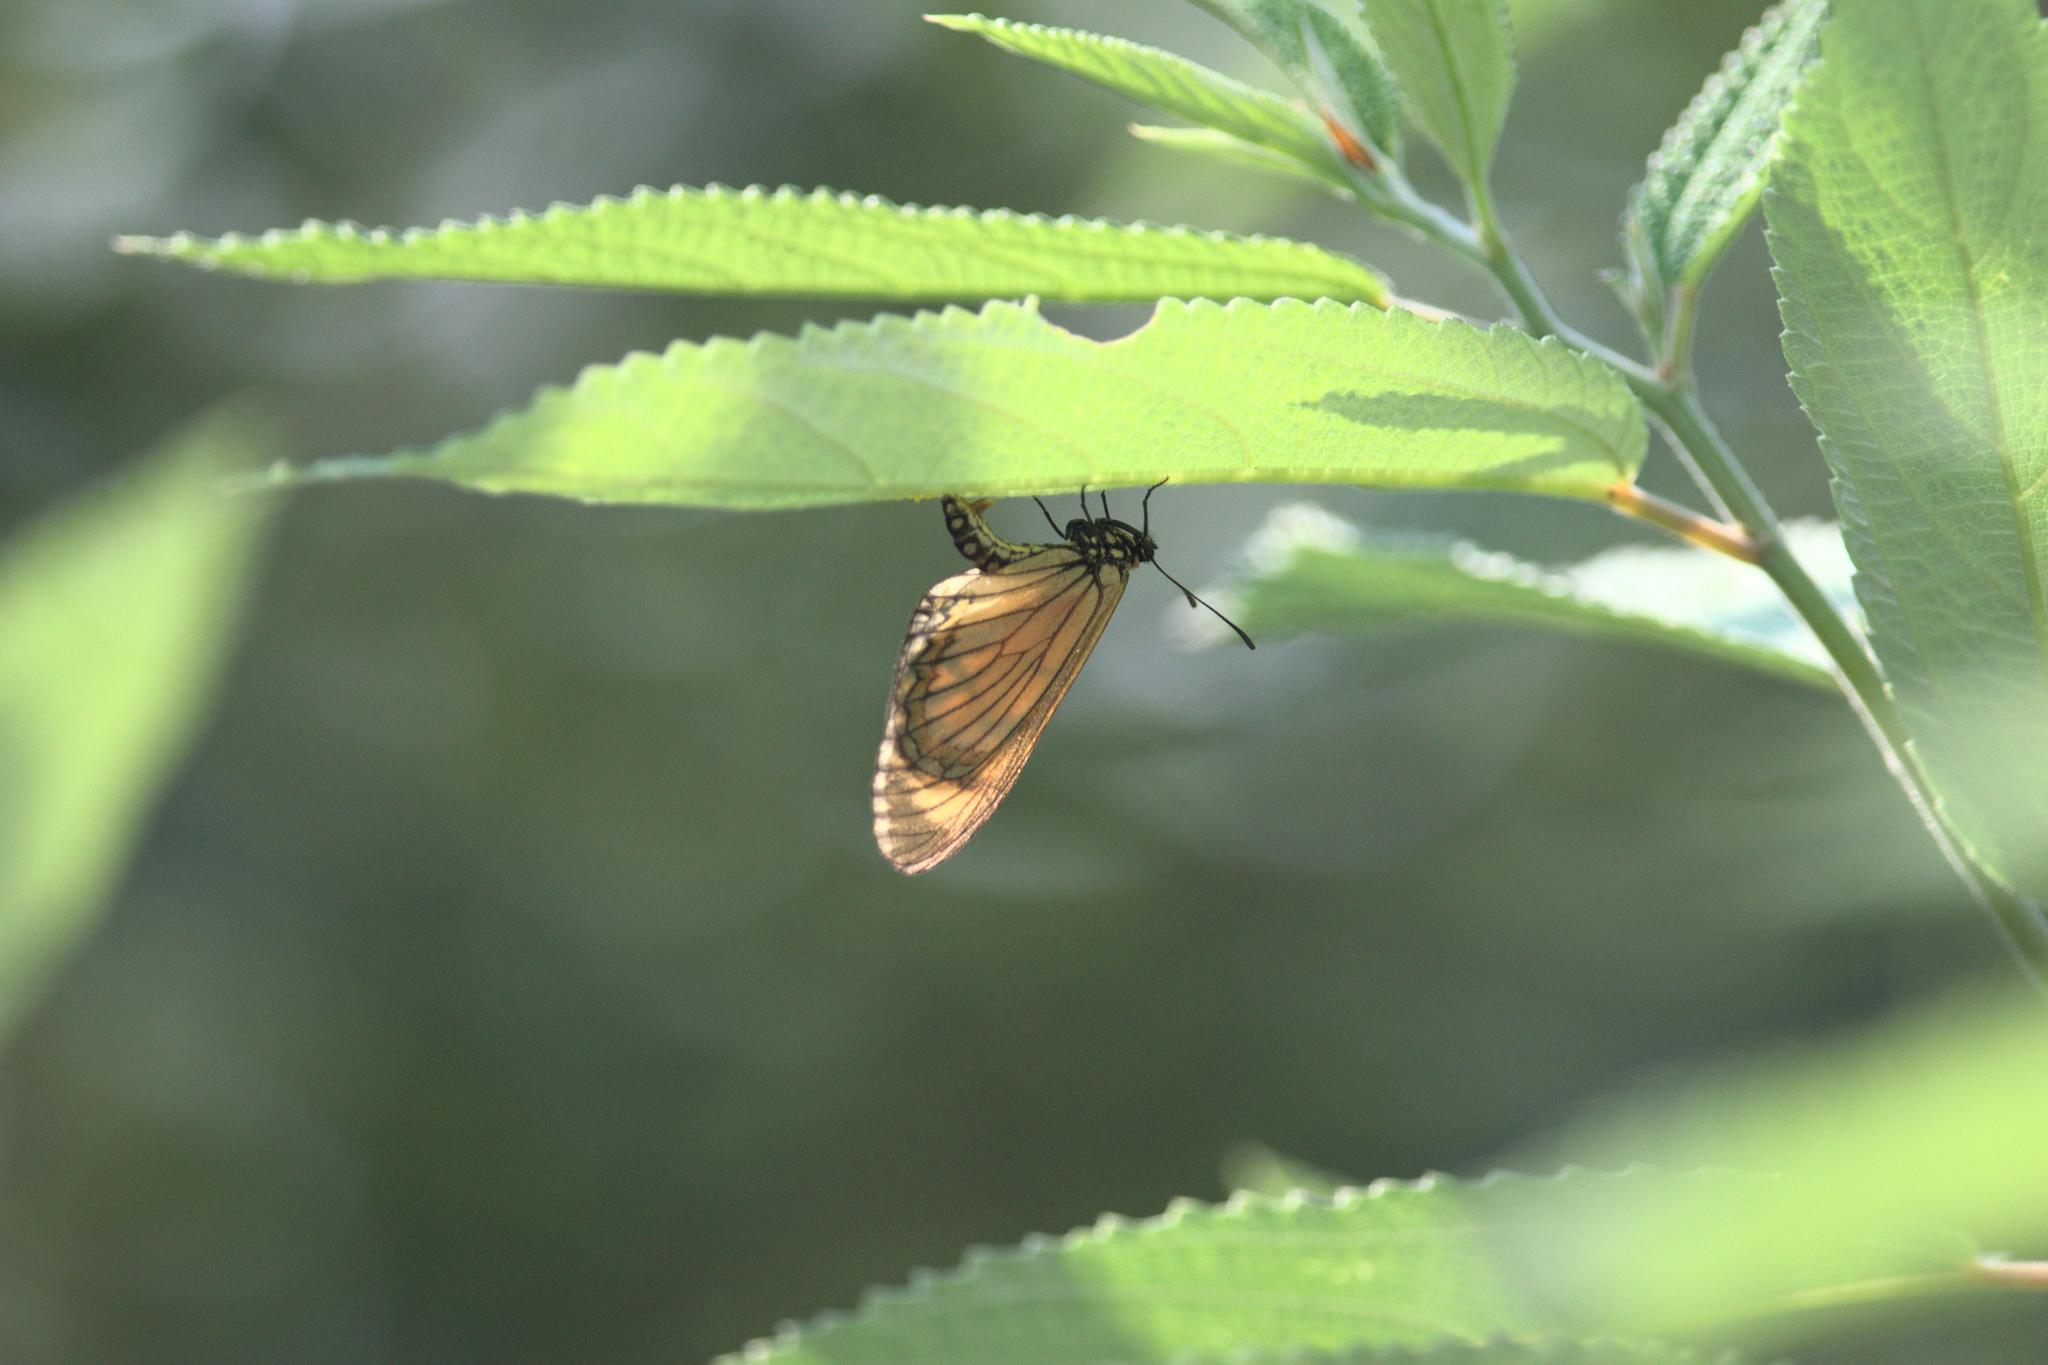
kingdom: Animalia
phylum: Arthropoda
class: Insecta
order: Lepidoptera
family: Nymphalidae
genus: Acraea
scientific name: Acraea Telchinia issoria
